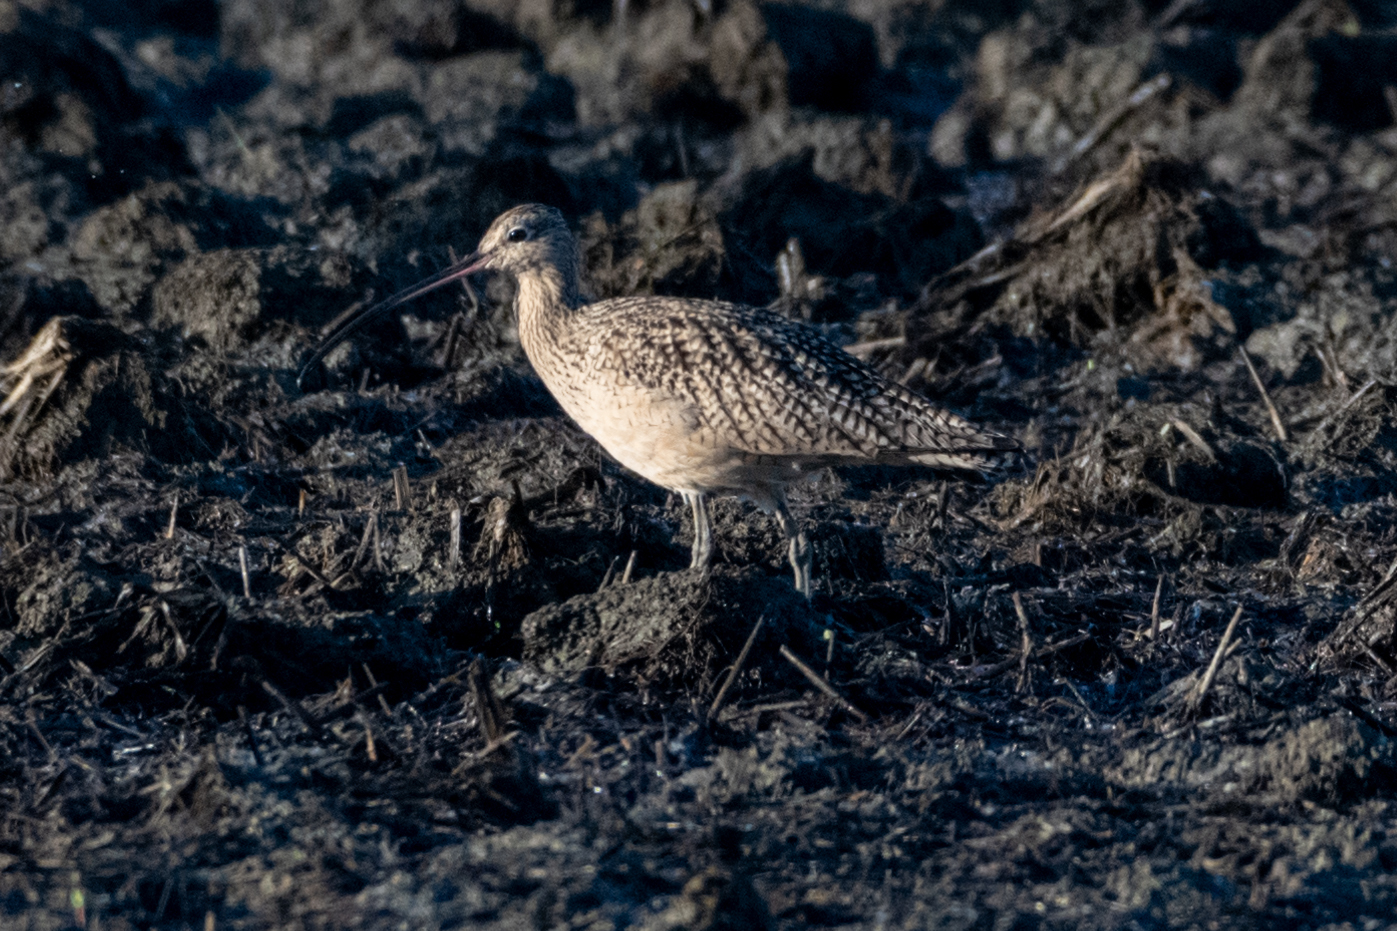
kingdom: Animalia
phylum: Chordata
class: Aves
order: Charadriiformes
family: Scolopacidae
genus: Numenius
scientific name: Numenius americanus
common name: Long-billed curlew
